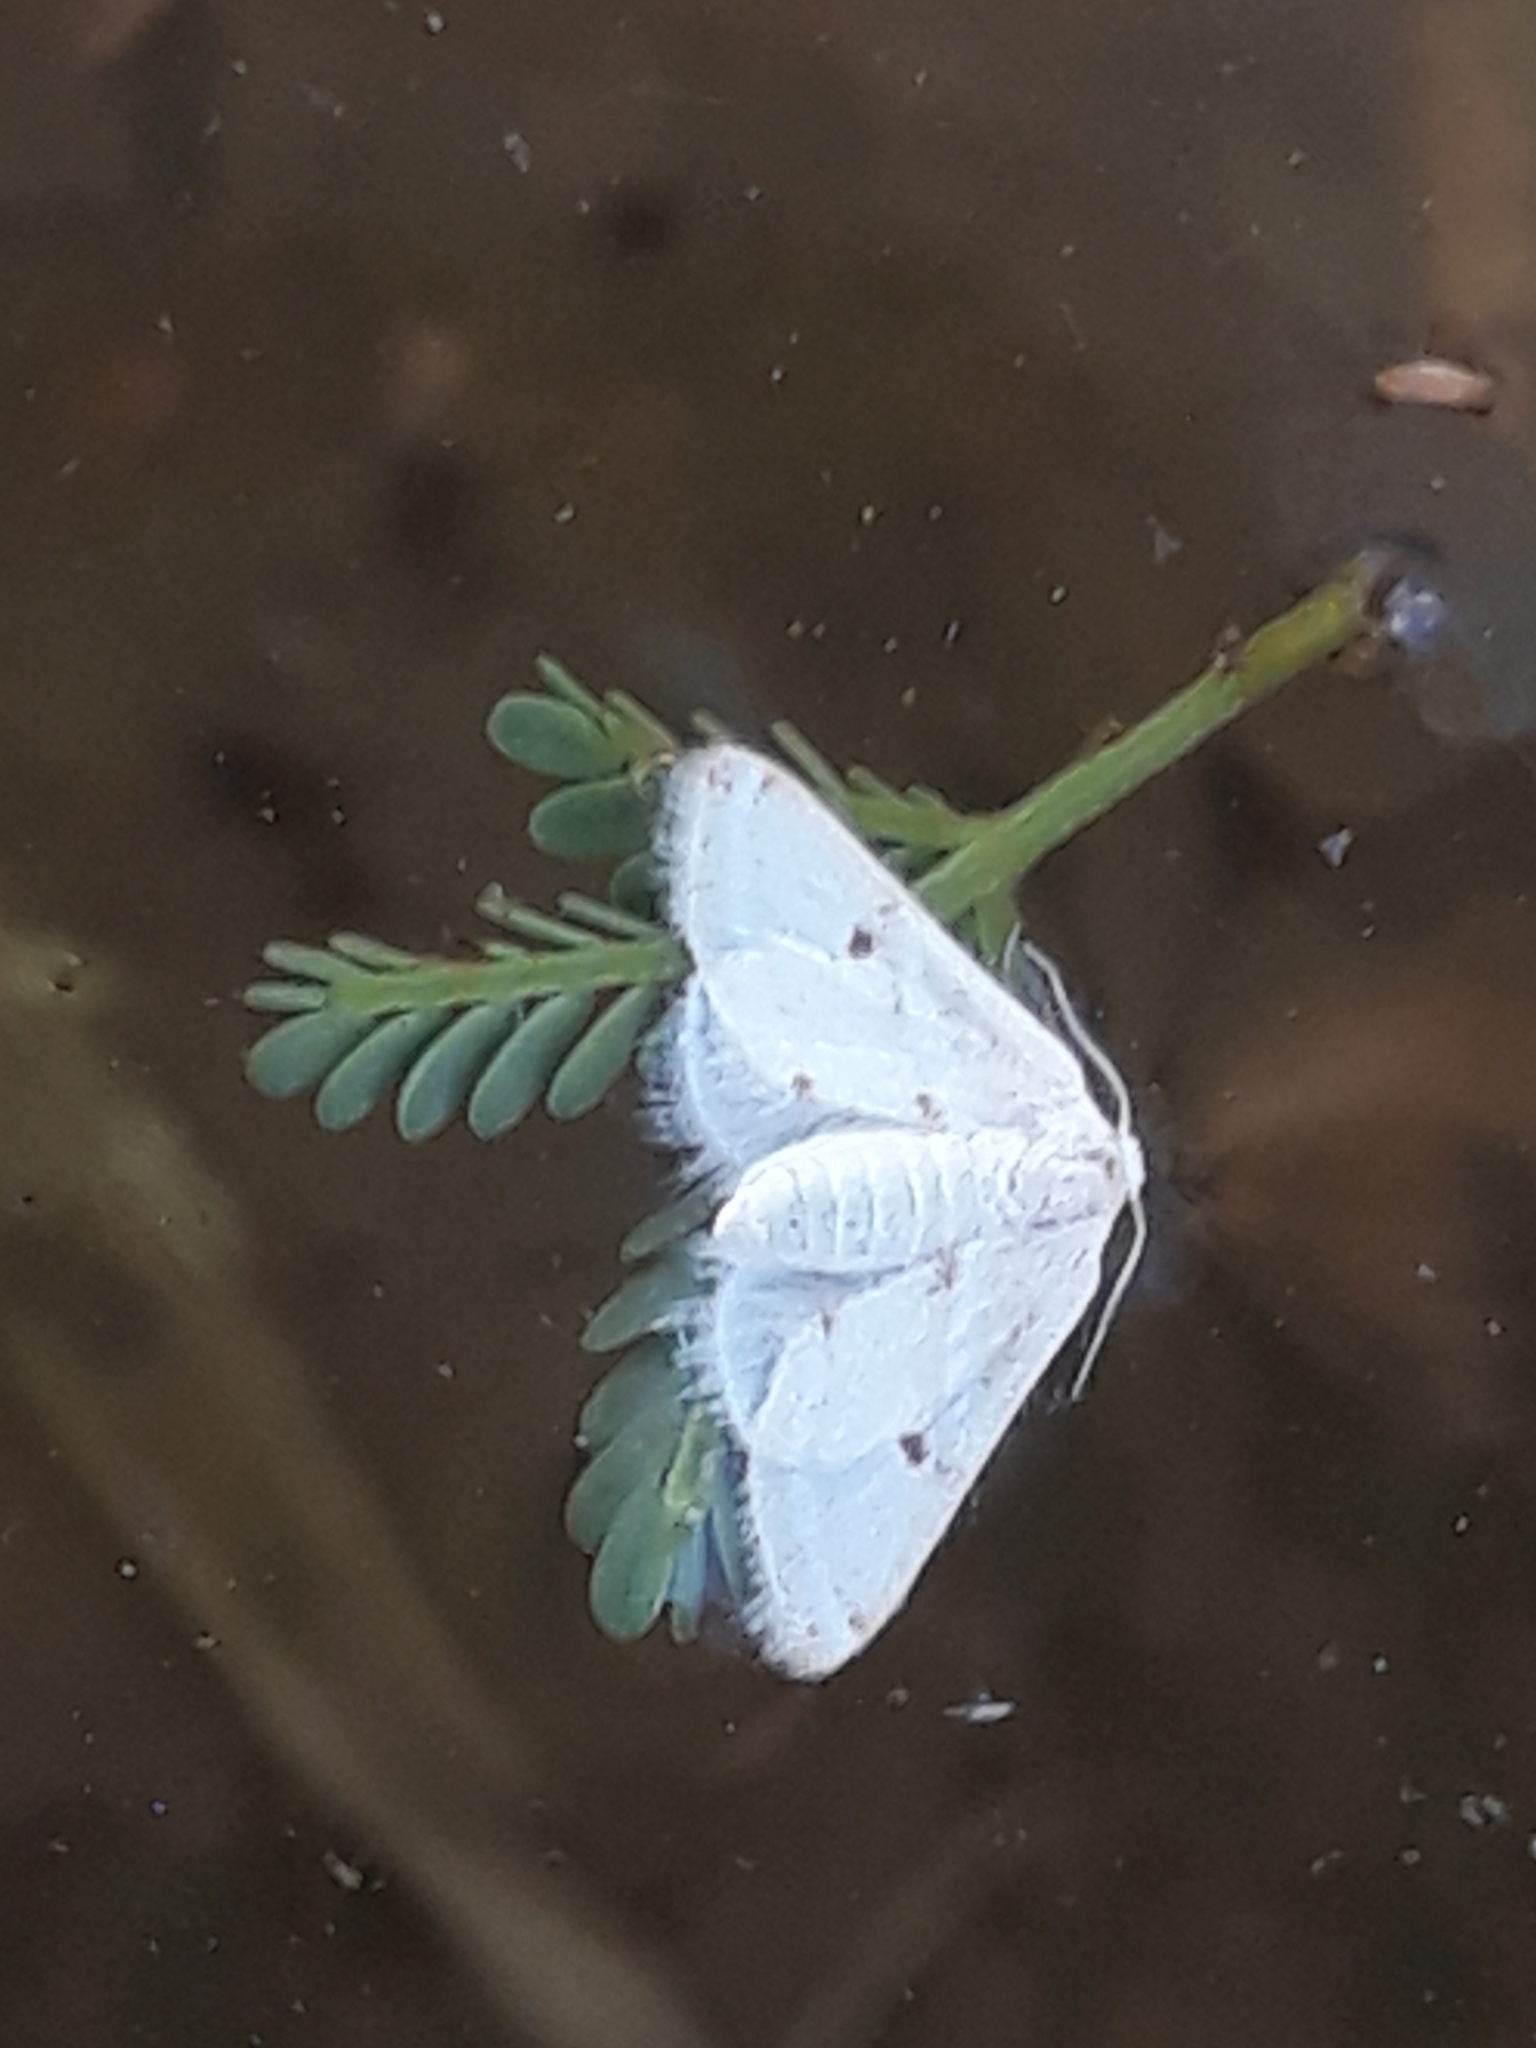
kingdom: Animalia
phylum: Arthropoda
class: Insecta
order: Lepidoptera
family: Geometridae
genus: Acidaliastis
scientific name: Acidaliastis micra
